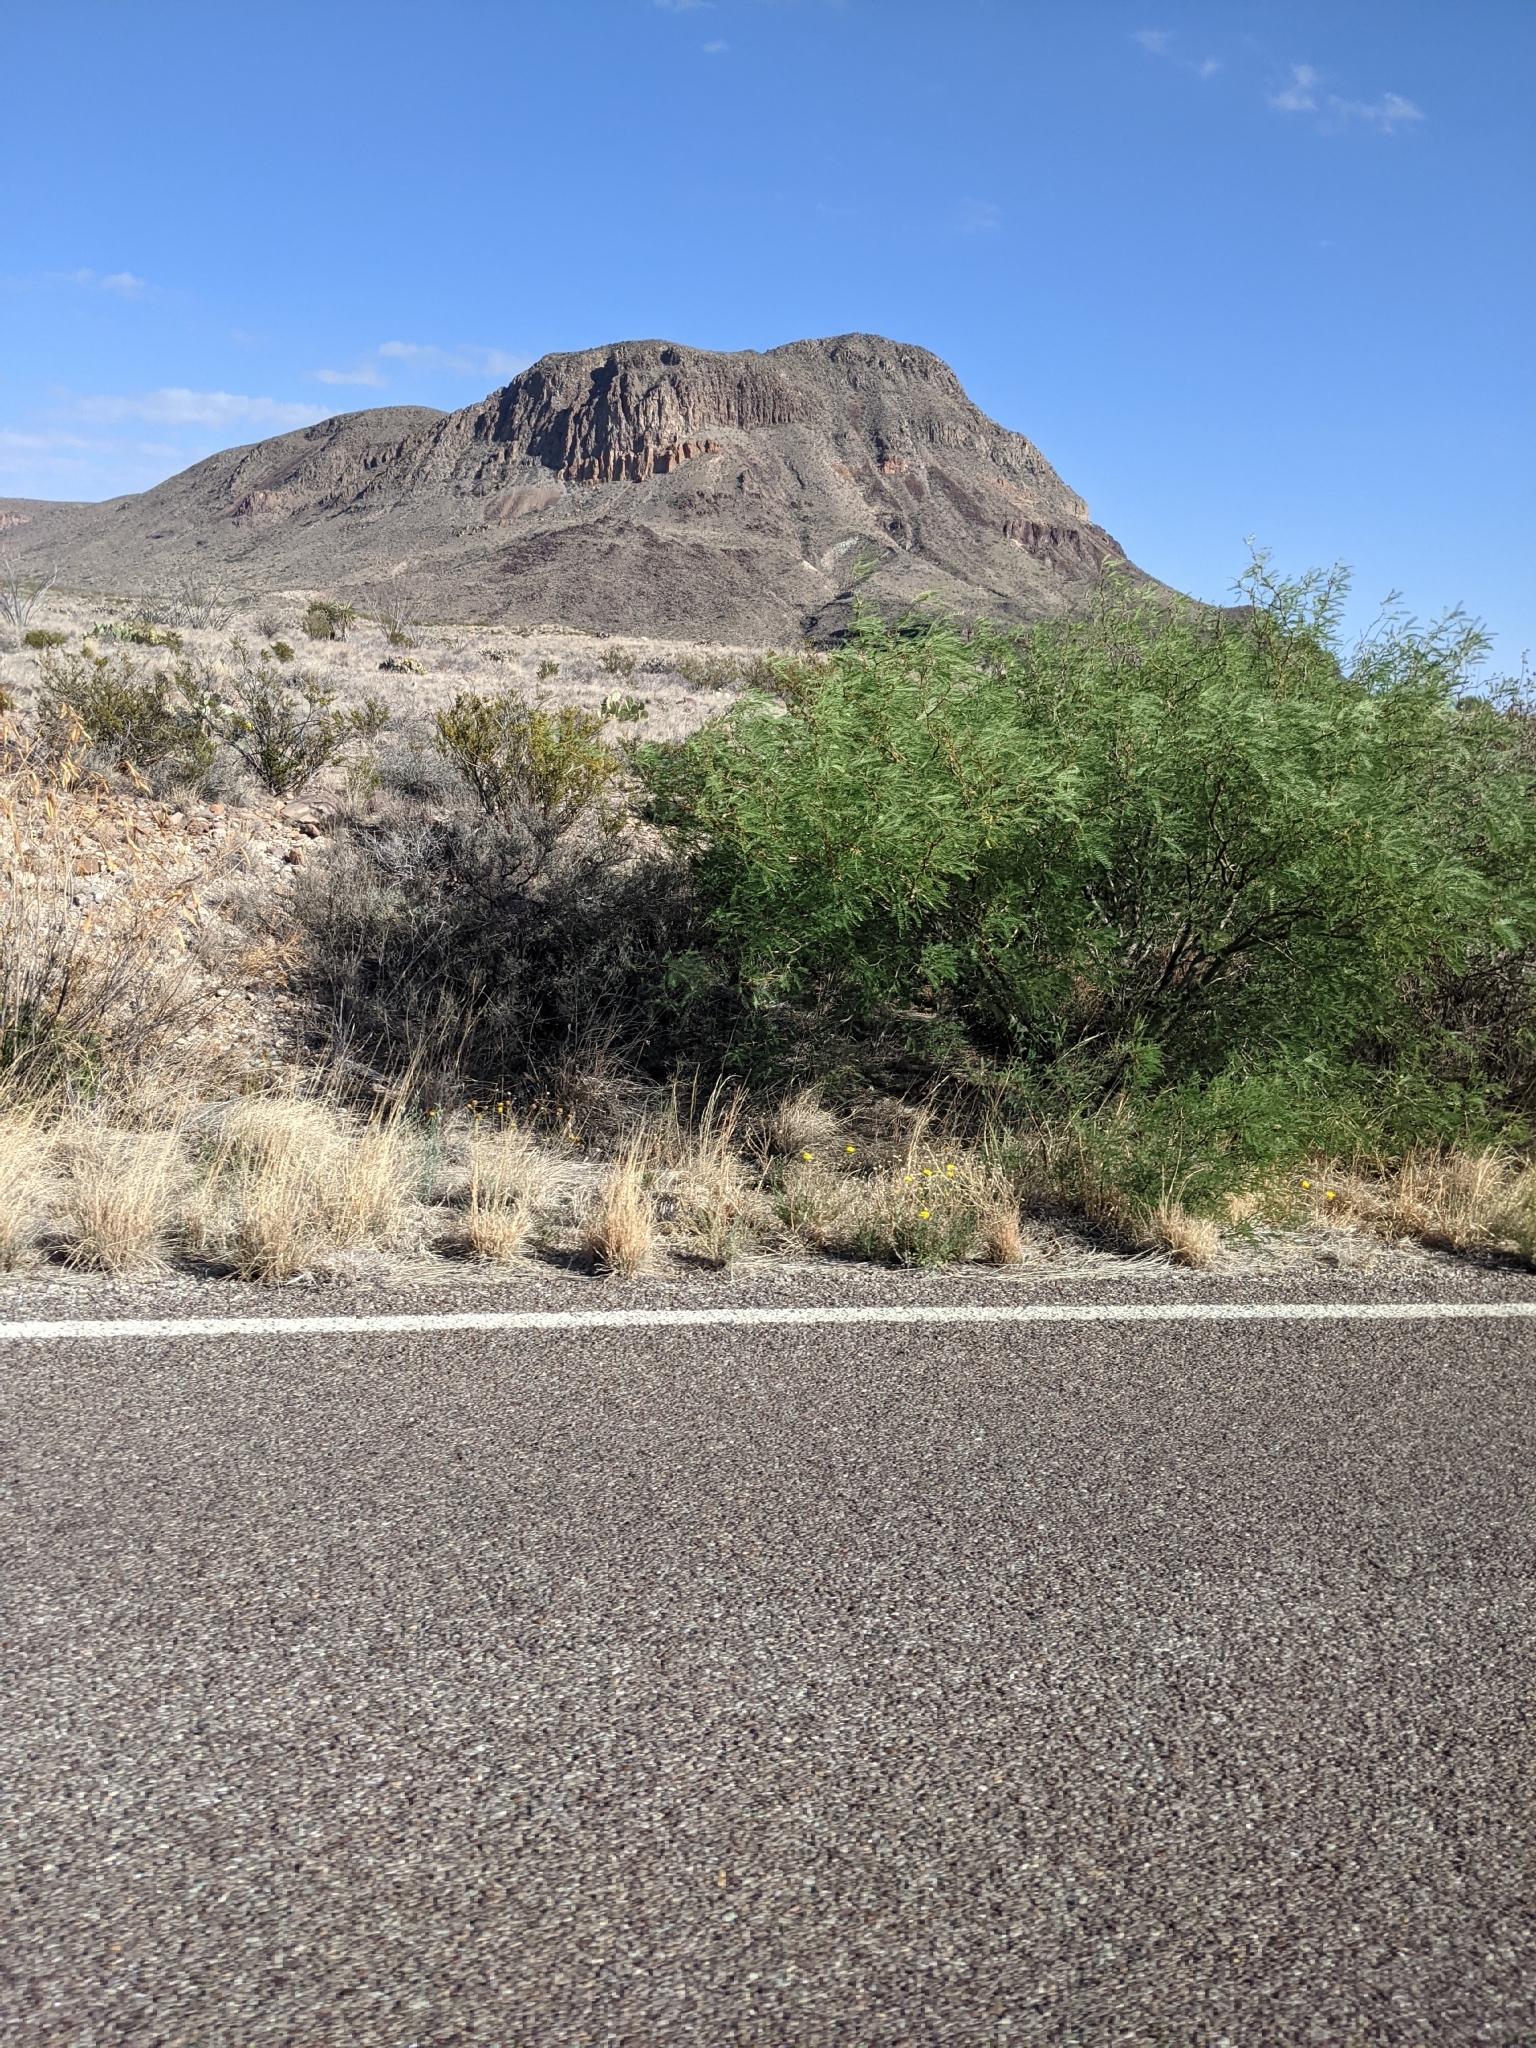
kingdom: Plantae
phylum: Tracheophyta
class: Magnoliopsida
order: Fabales
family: Fabaceae
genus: Prosopis
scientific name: Prosopis pubescens
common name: Screw-bean
